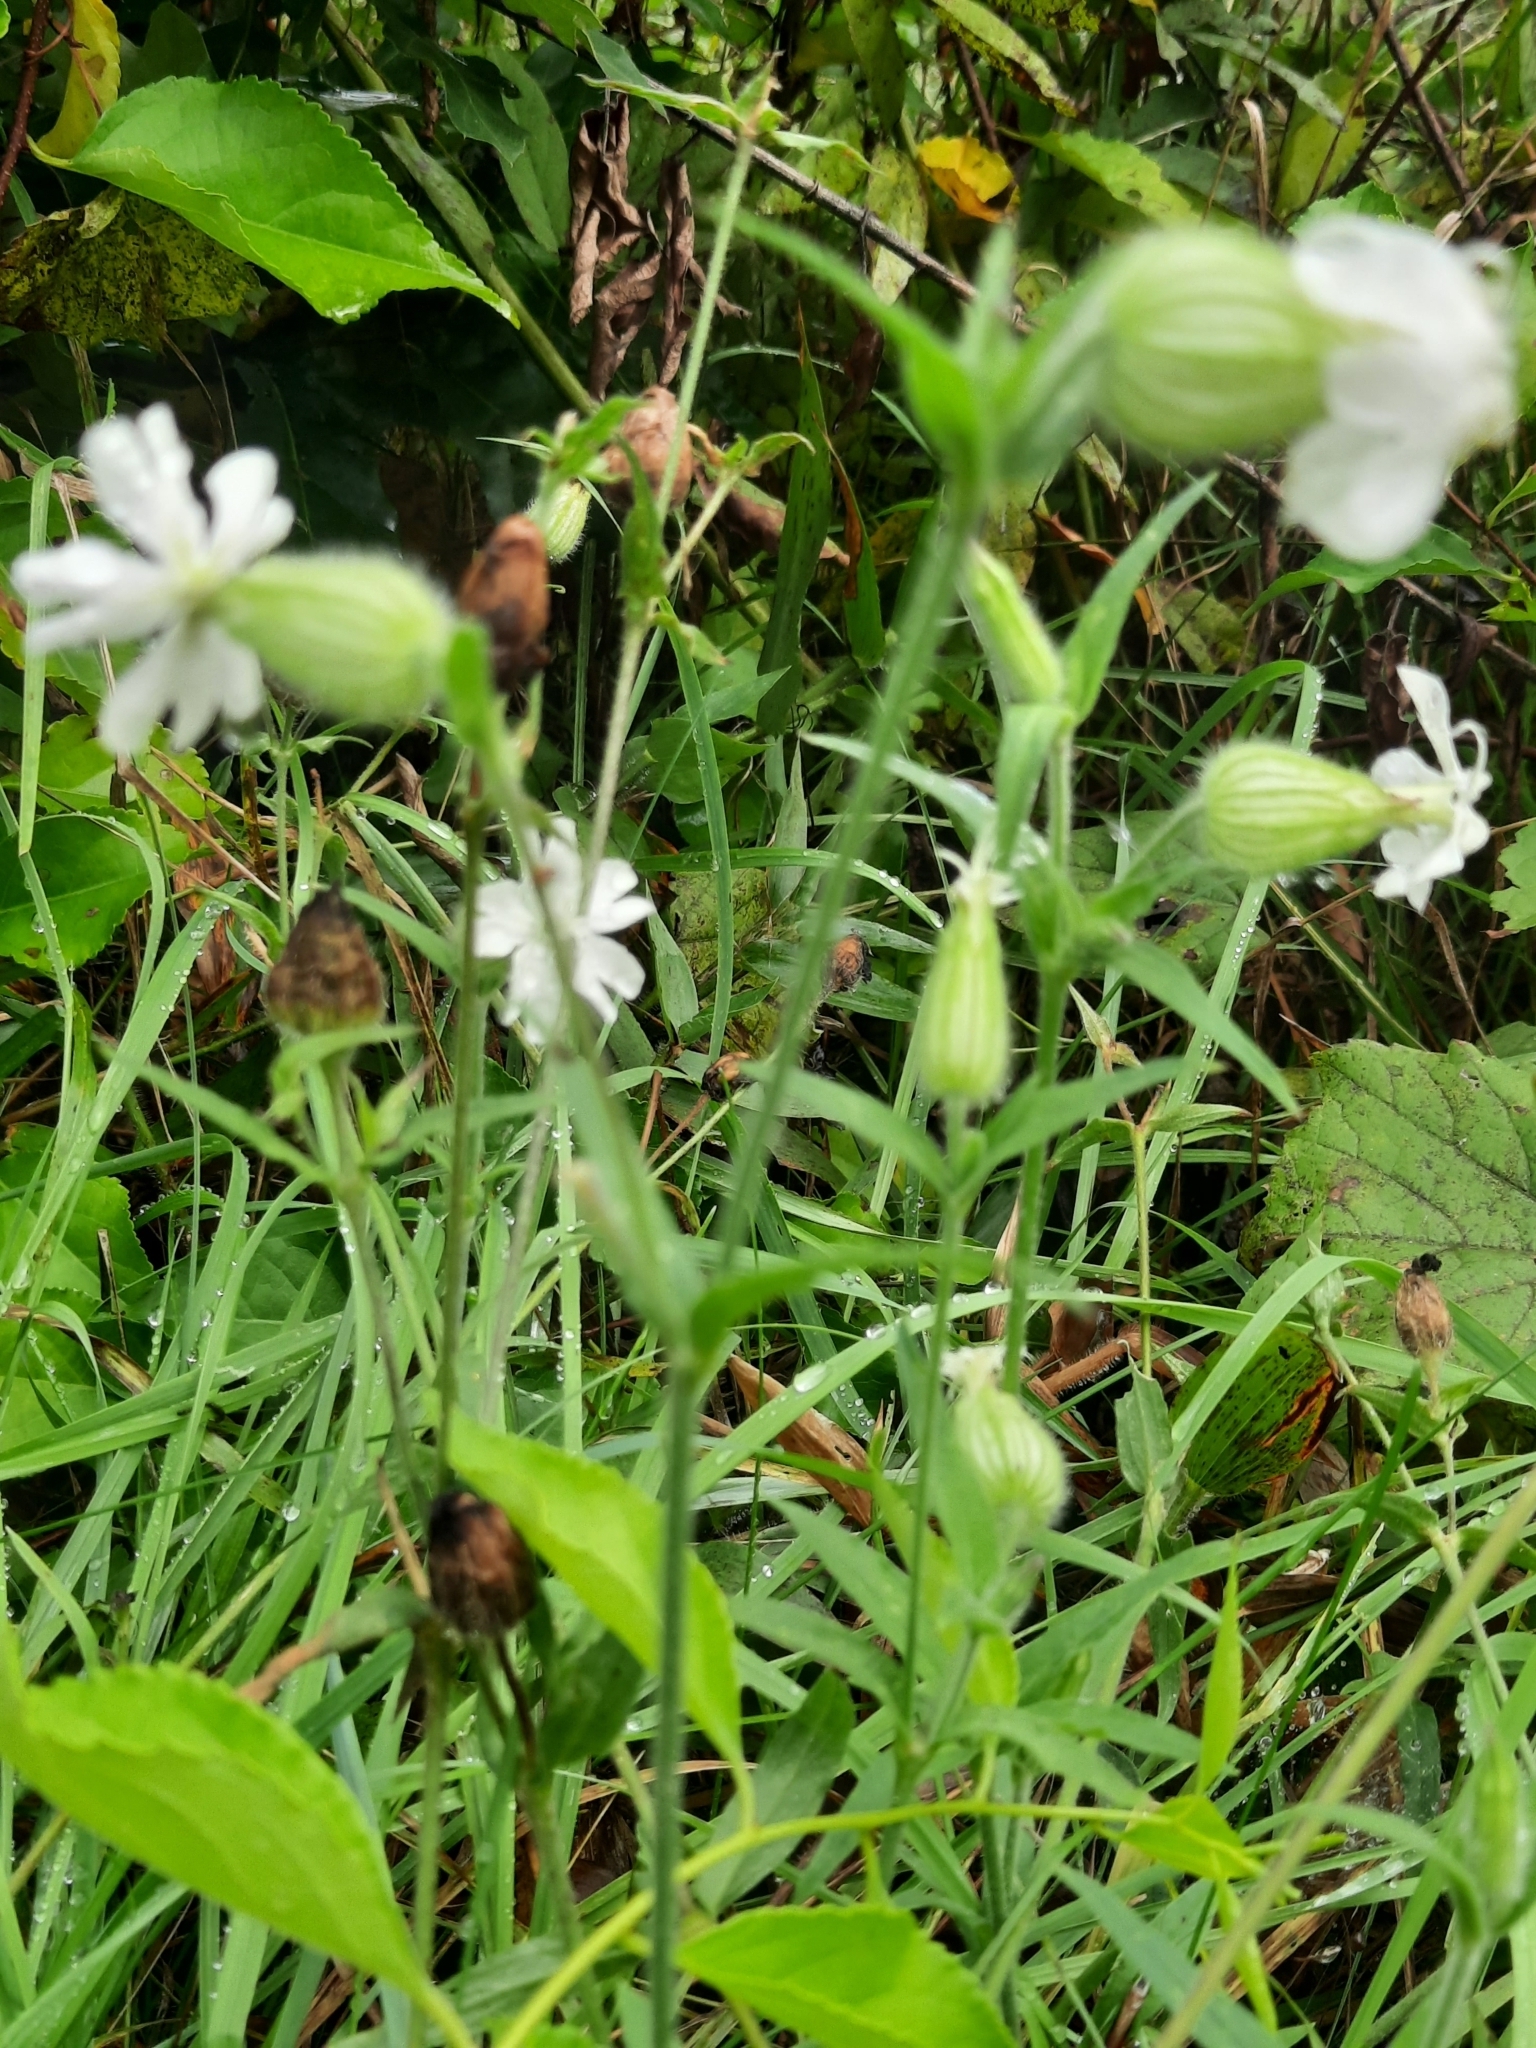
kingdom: Plantae
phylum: Tracheophyta
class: Magnoliopsida
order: Caryophyllales
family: Caryophyllaceae
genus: Silene
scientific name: Silene latifolia
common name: White campion
